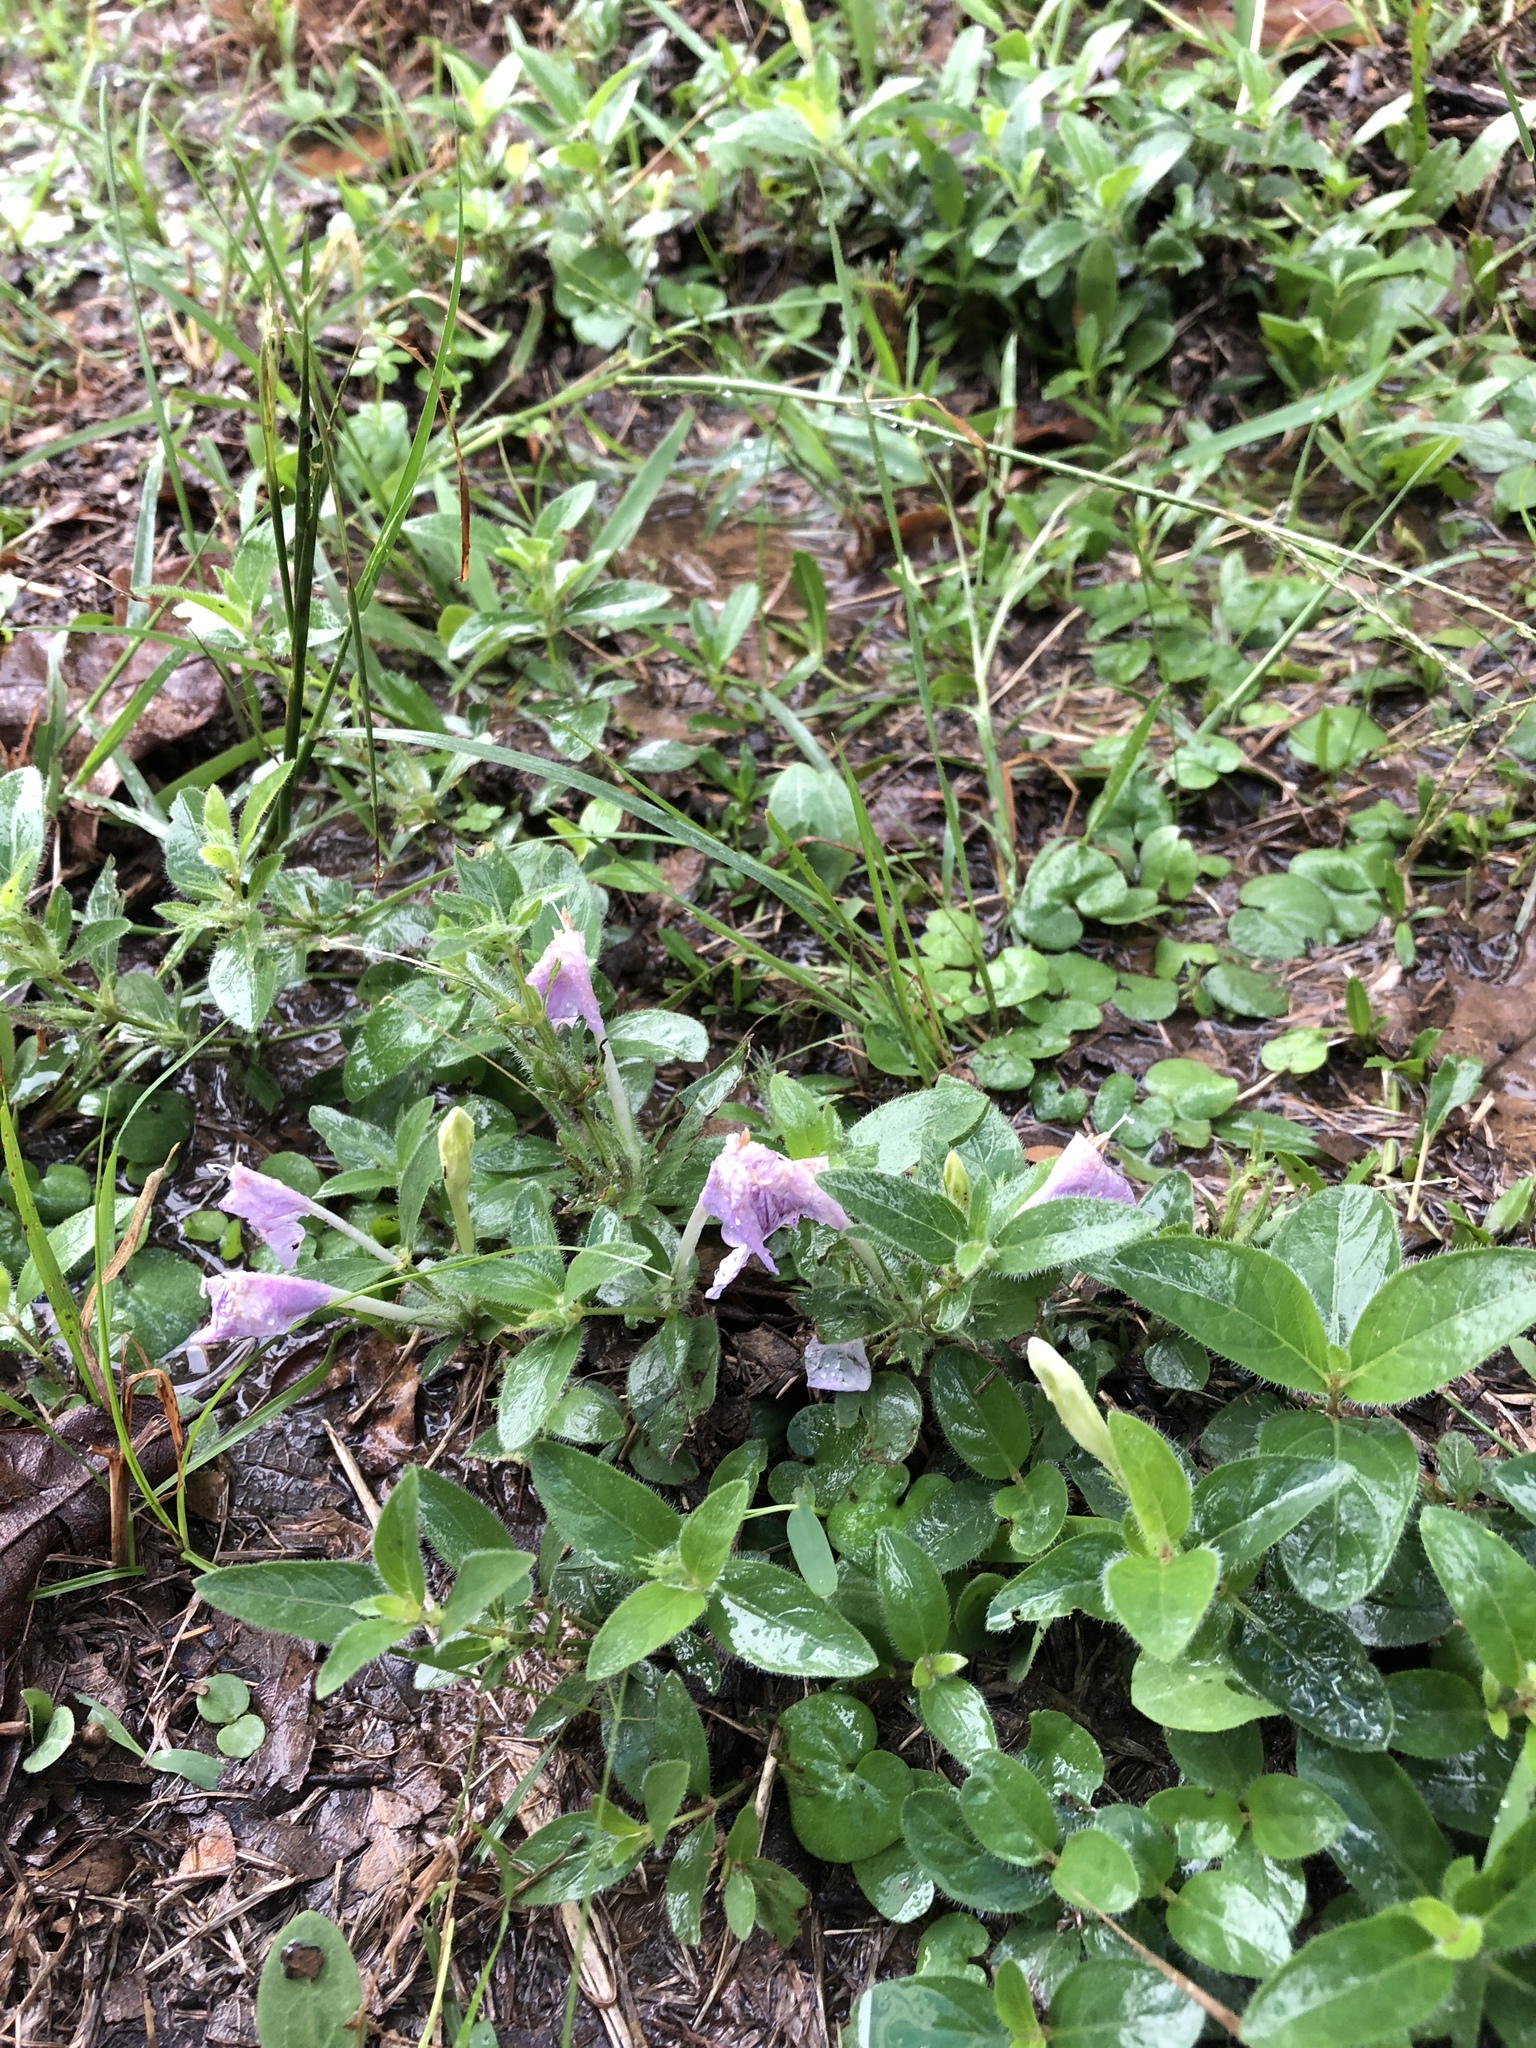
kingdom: Plantae
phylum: Tracheophyta
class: Magnoliopsida
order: Lamiales
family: Acanthaceae
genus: Ruellia
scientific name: Ruellia humilis
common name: Fringe-leaf ruellia
